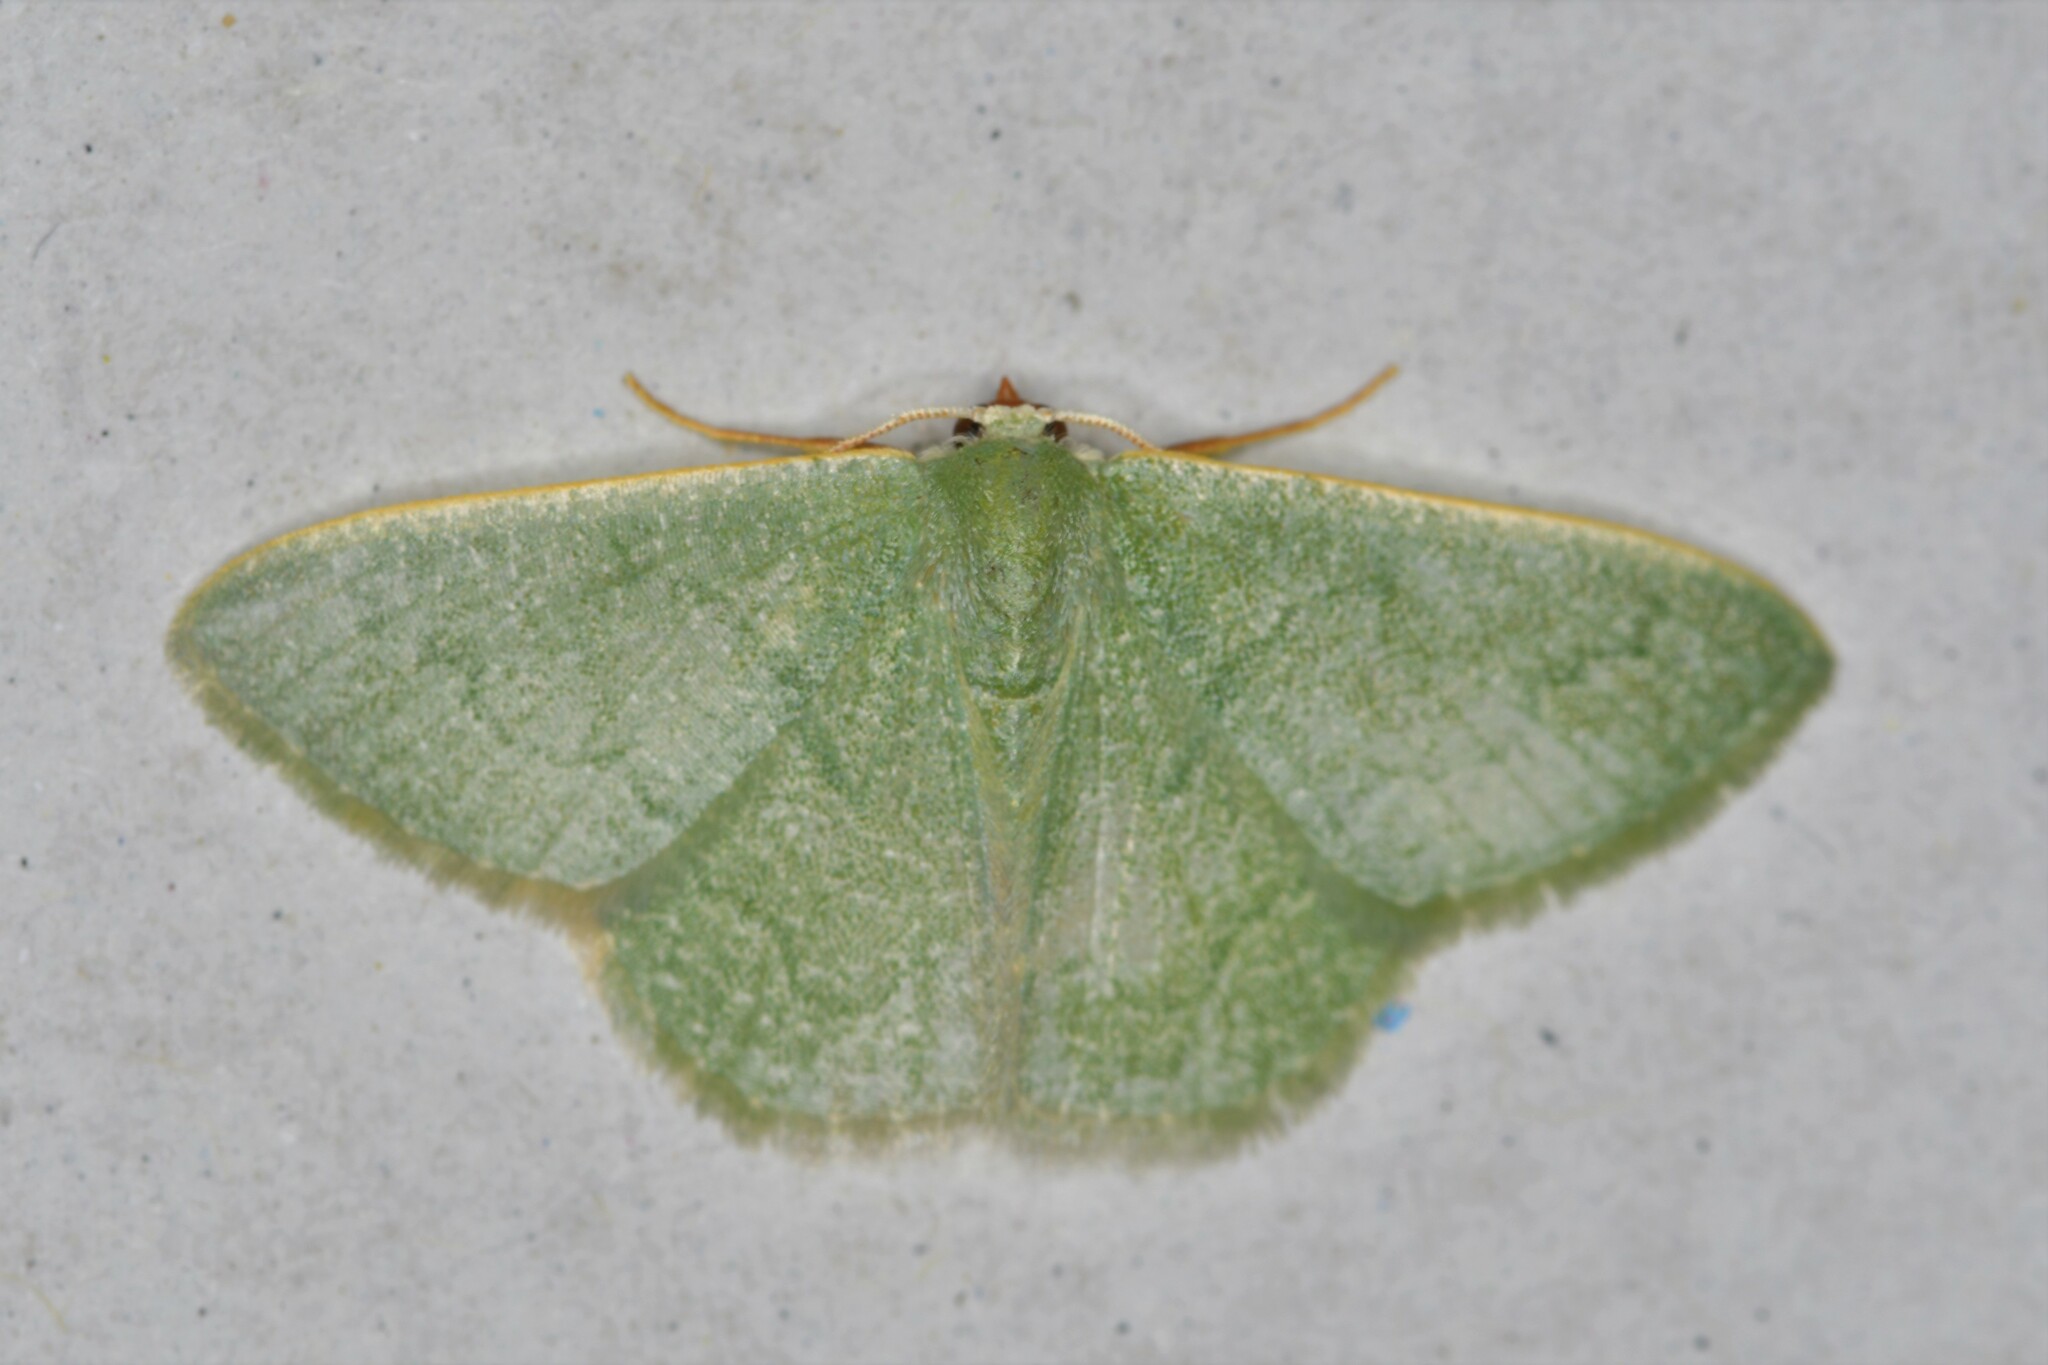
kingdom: Animalia
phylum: Arthropoda
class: Insecta
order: Lepidoptera
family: Geometridae
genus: Phaiogramma
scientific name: Phaiogramma faustinata
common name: Millière's emerald
